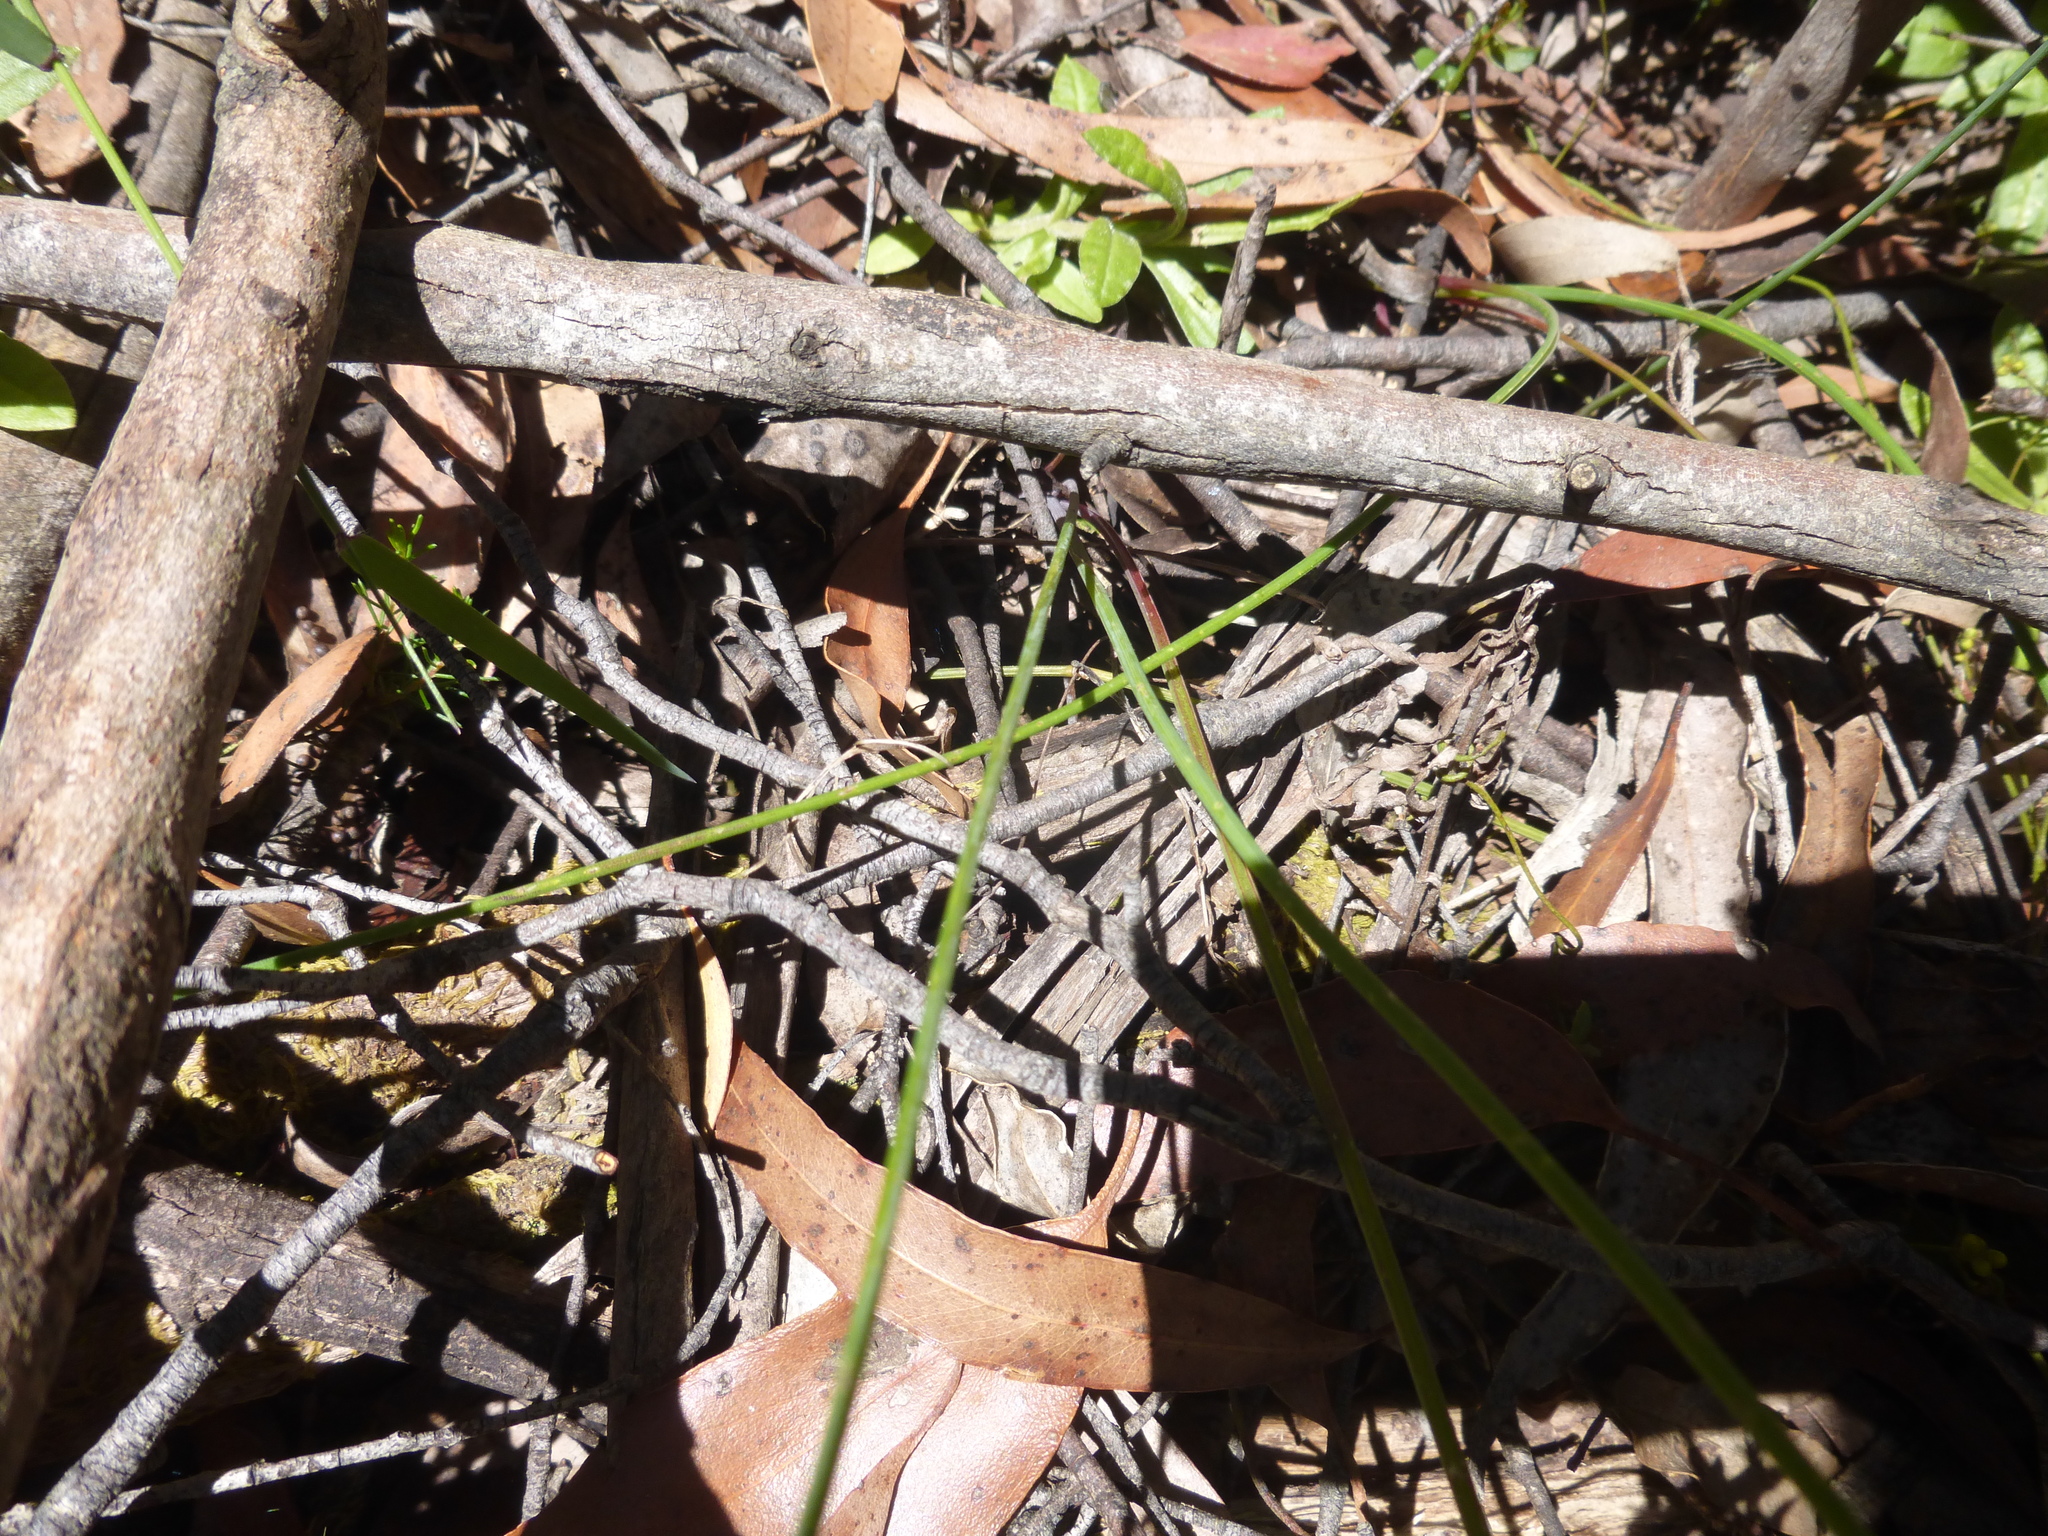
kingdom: Plantae
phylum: Tracheophyta
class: Liliopsida
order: Asparagales
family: Asparagaceae
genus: Thysanotus
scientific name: Thysanotus tuberosus
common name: Common fringed-lily
